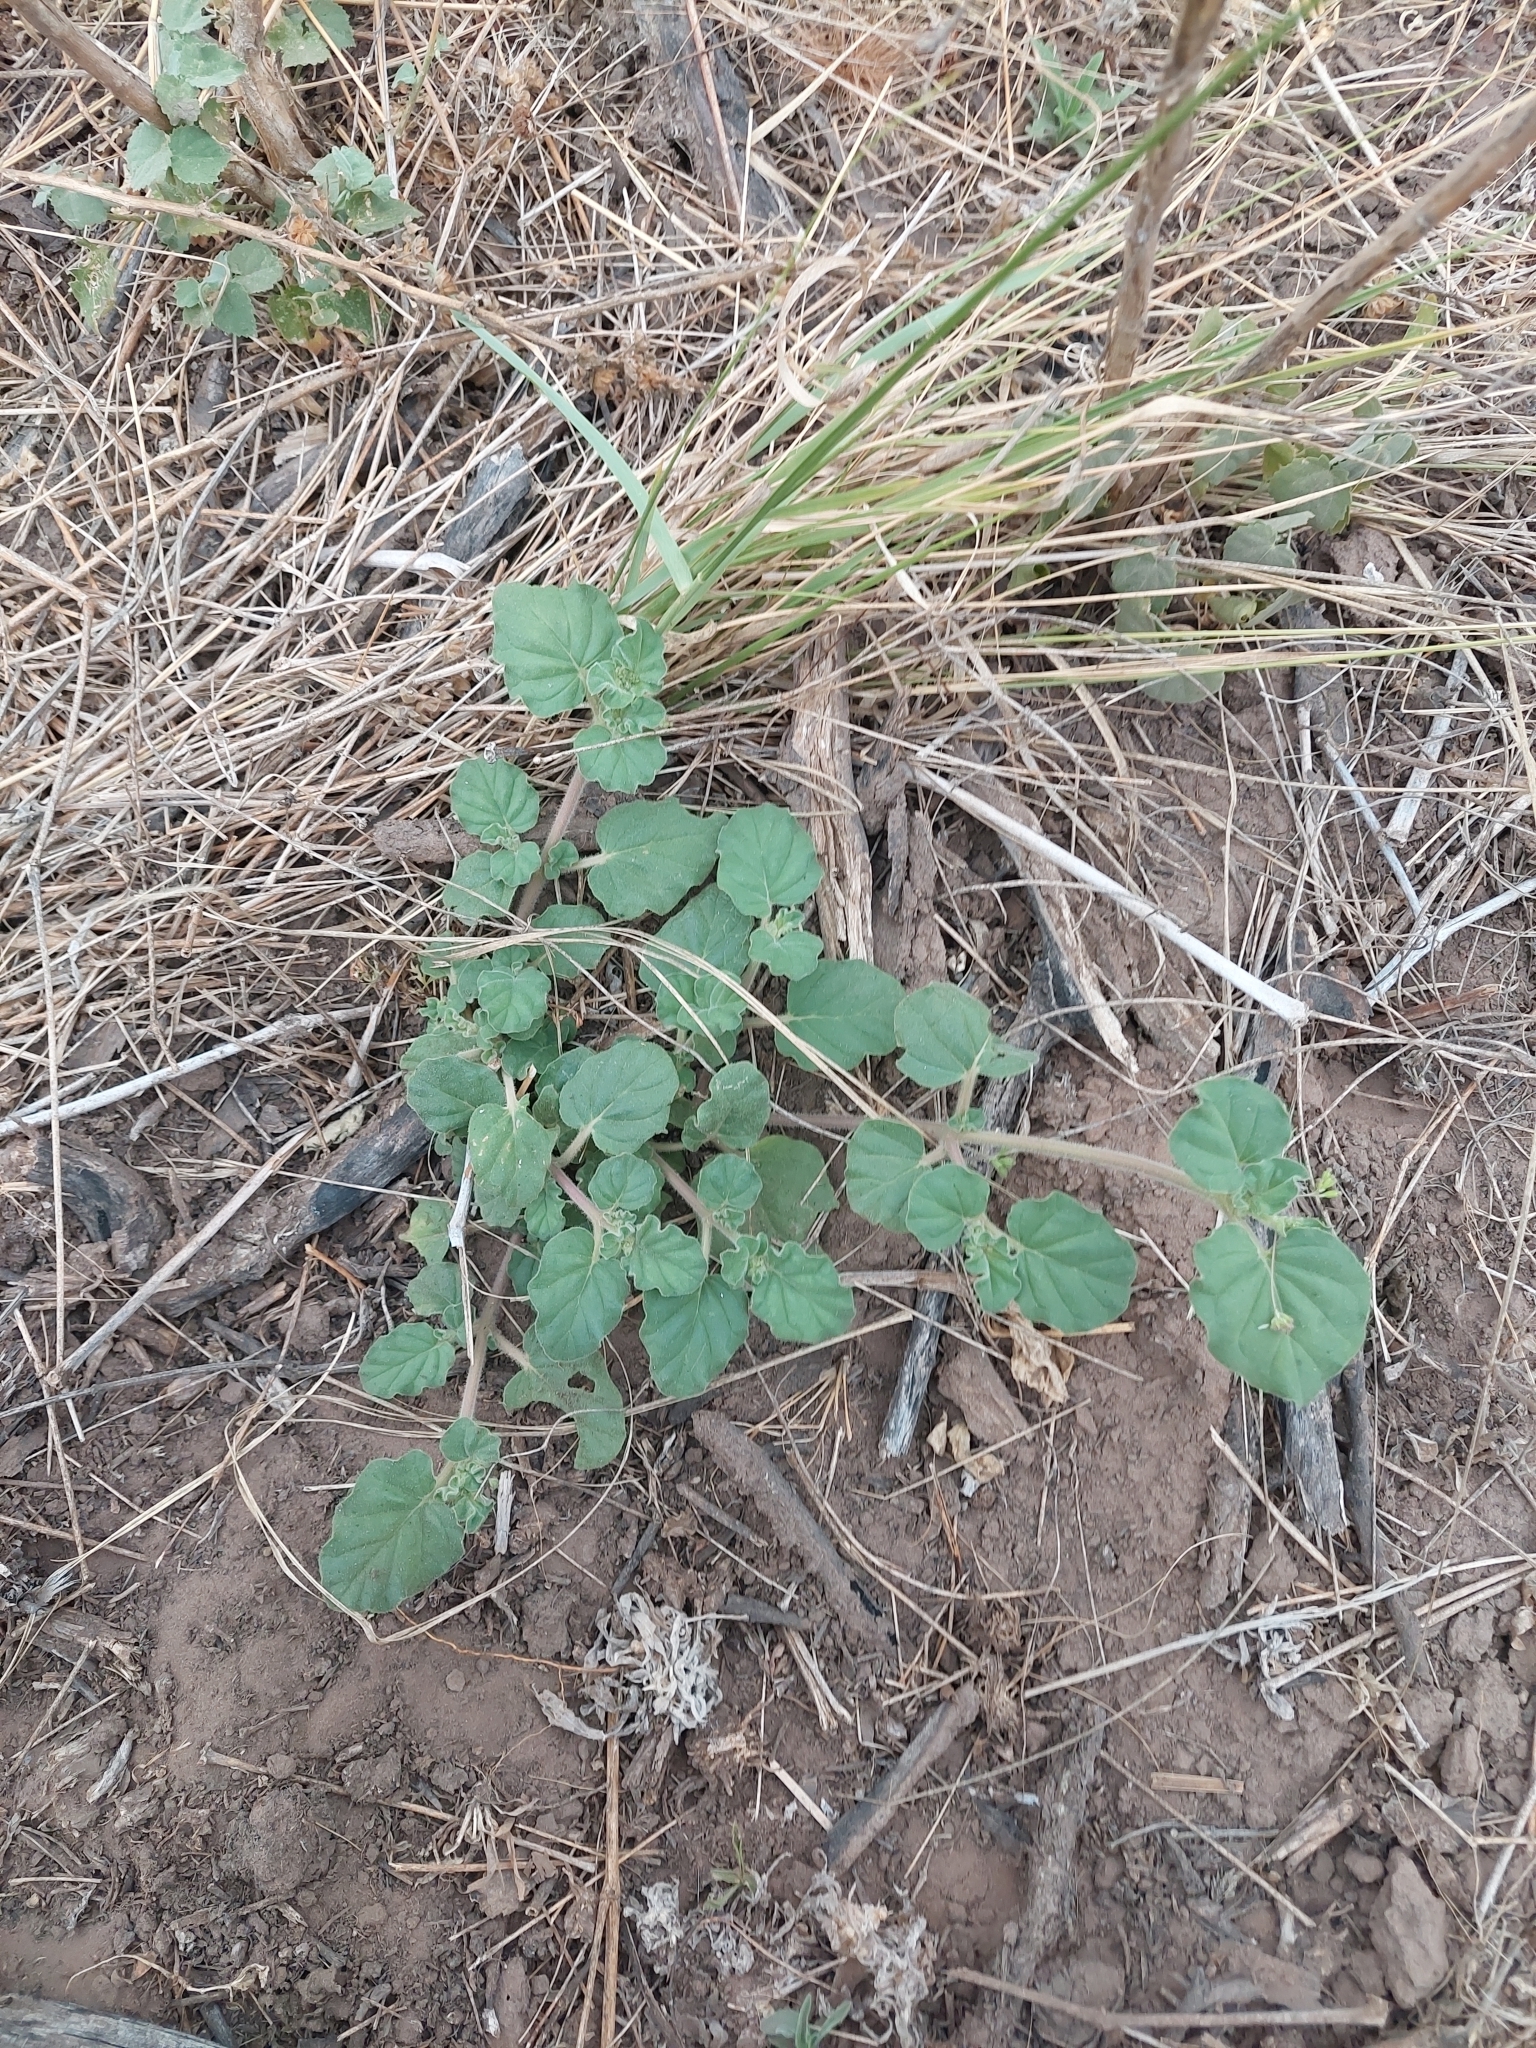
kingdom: Plantae
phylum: Tracheophyta
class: Magnoliopsida
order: Caryophyllales
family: Nyctaginaceae
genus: Boerhavia
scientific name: Boerhavia diffusa
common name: Red spiderling
